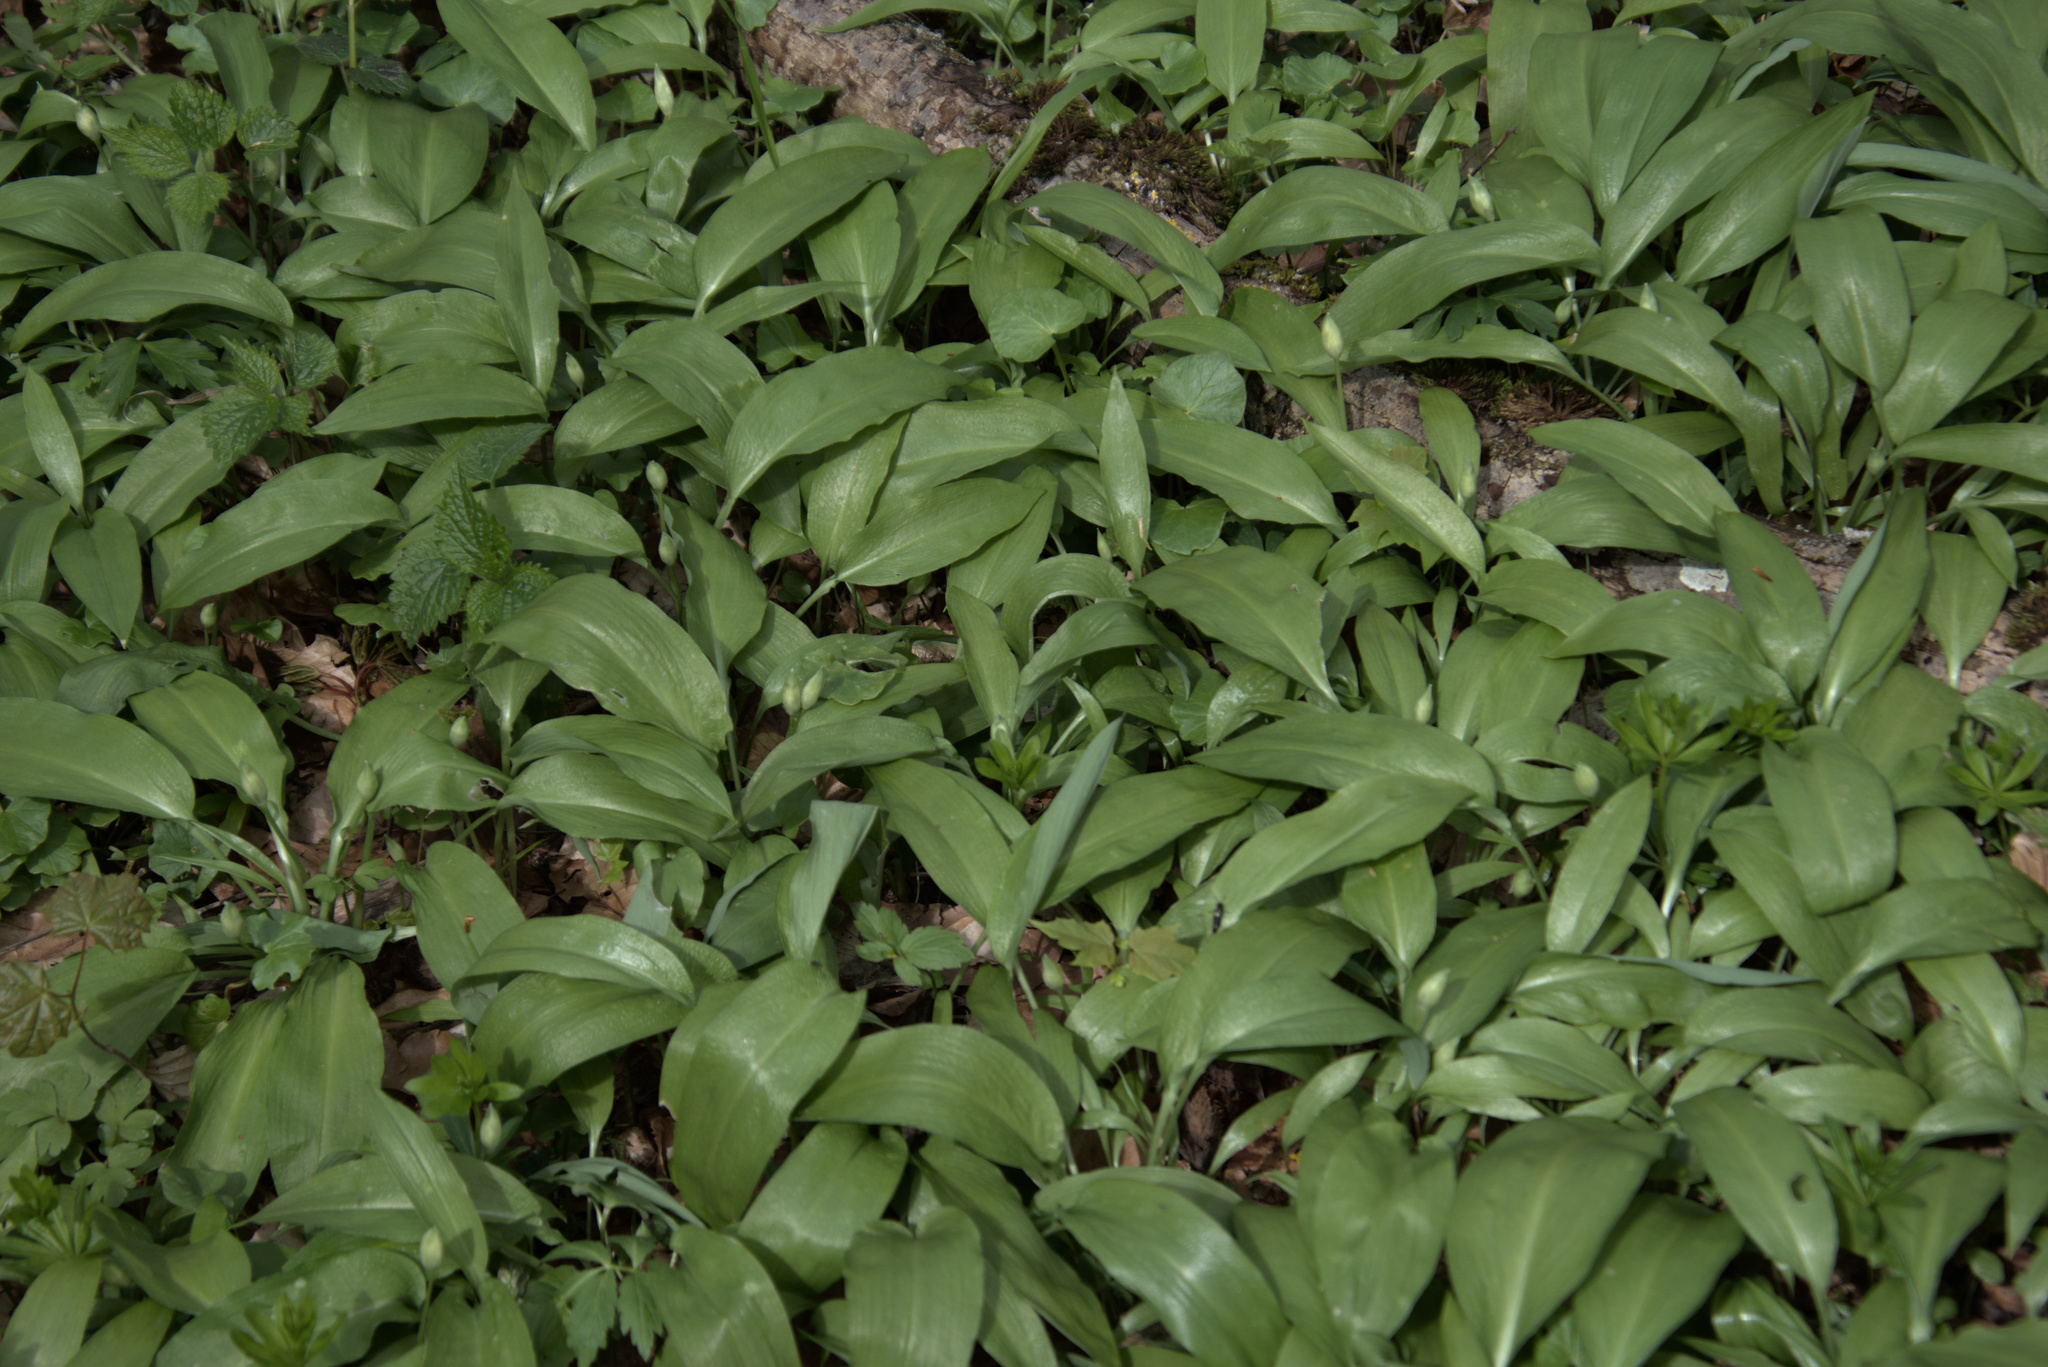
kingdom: Plantae
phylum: Tracheophyta
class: Liliopsida
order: Asparagales
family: Amaryllidaceae
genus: Allium
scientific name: Allium ursinum
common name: Ramsons
